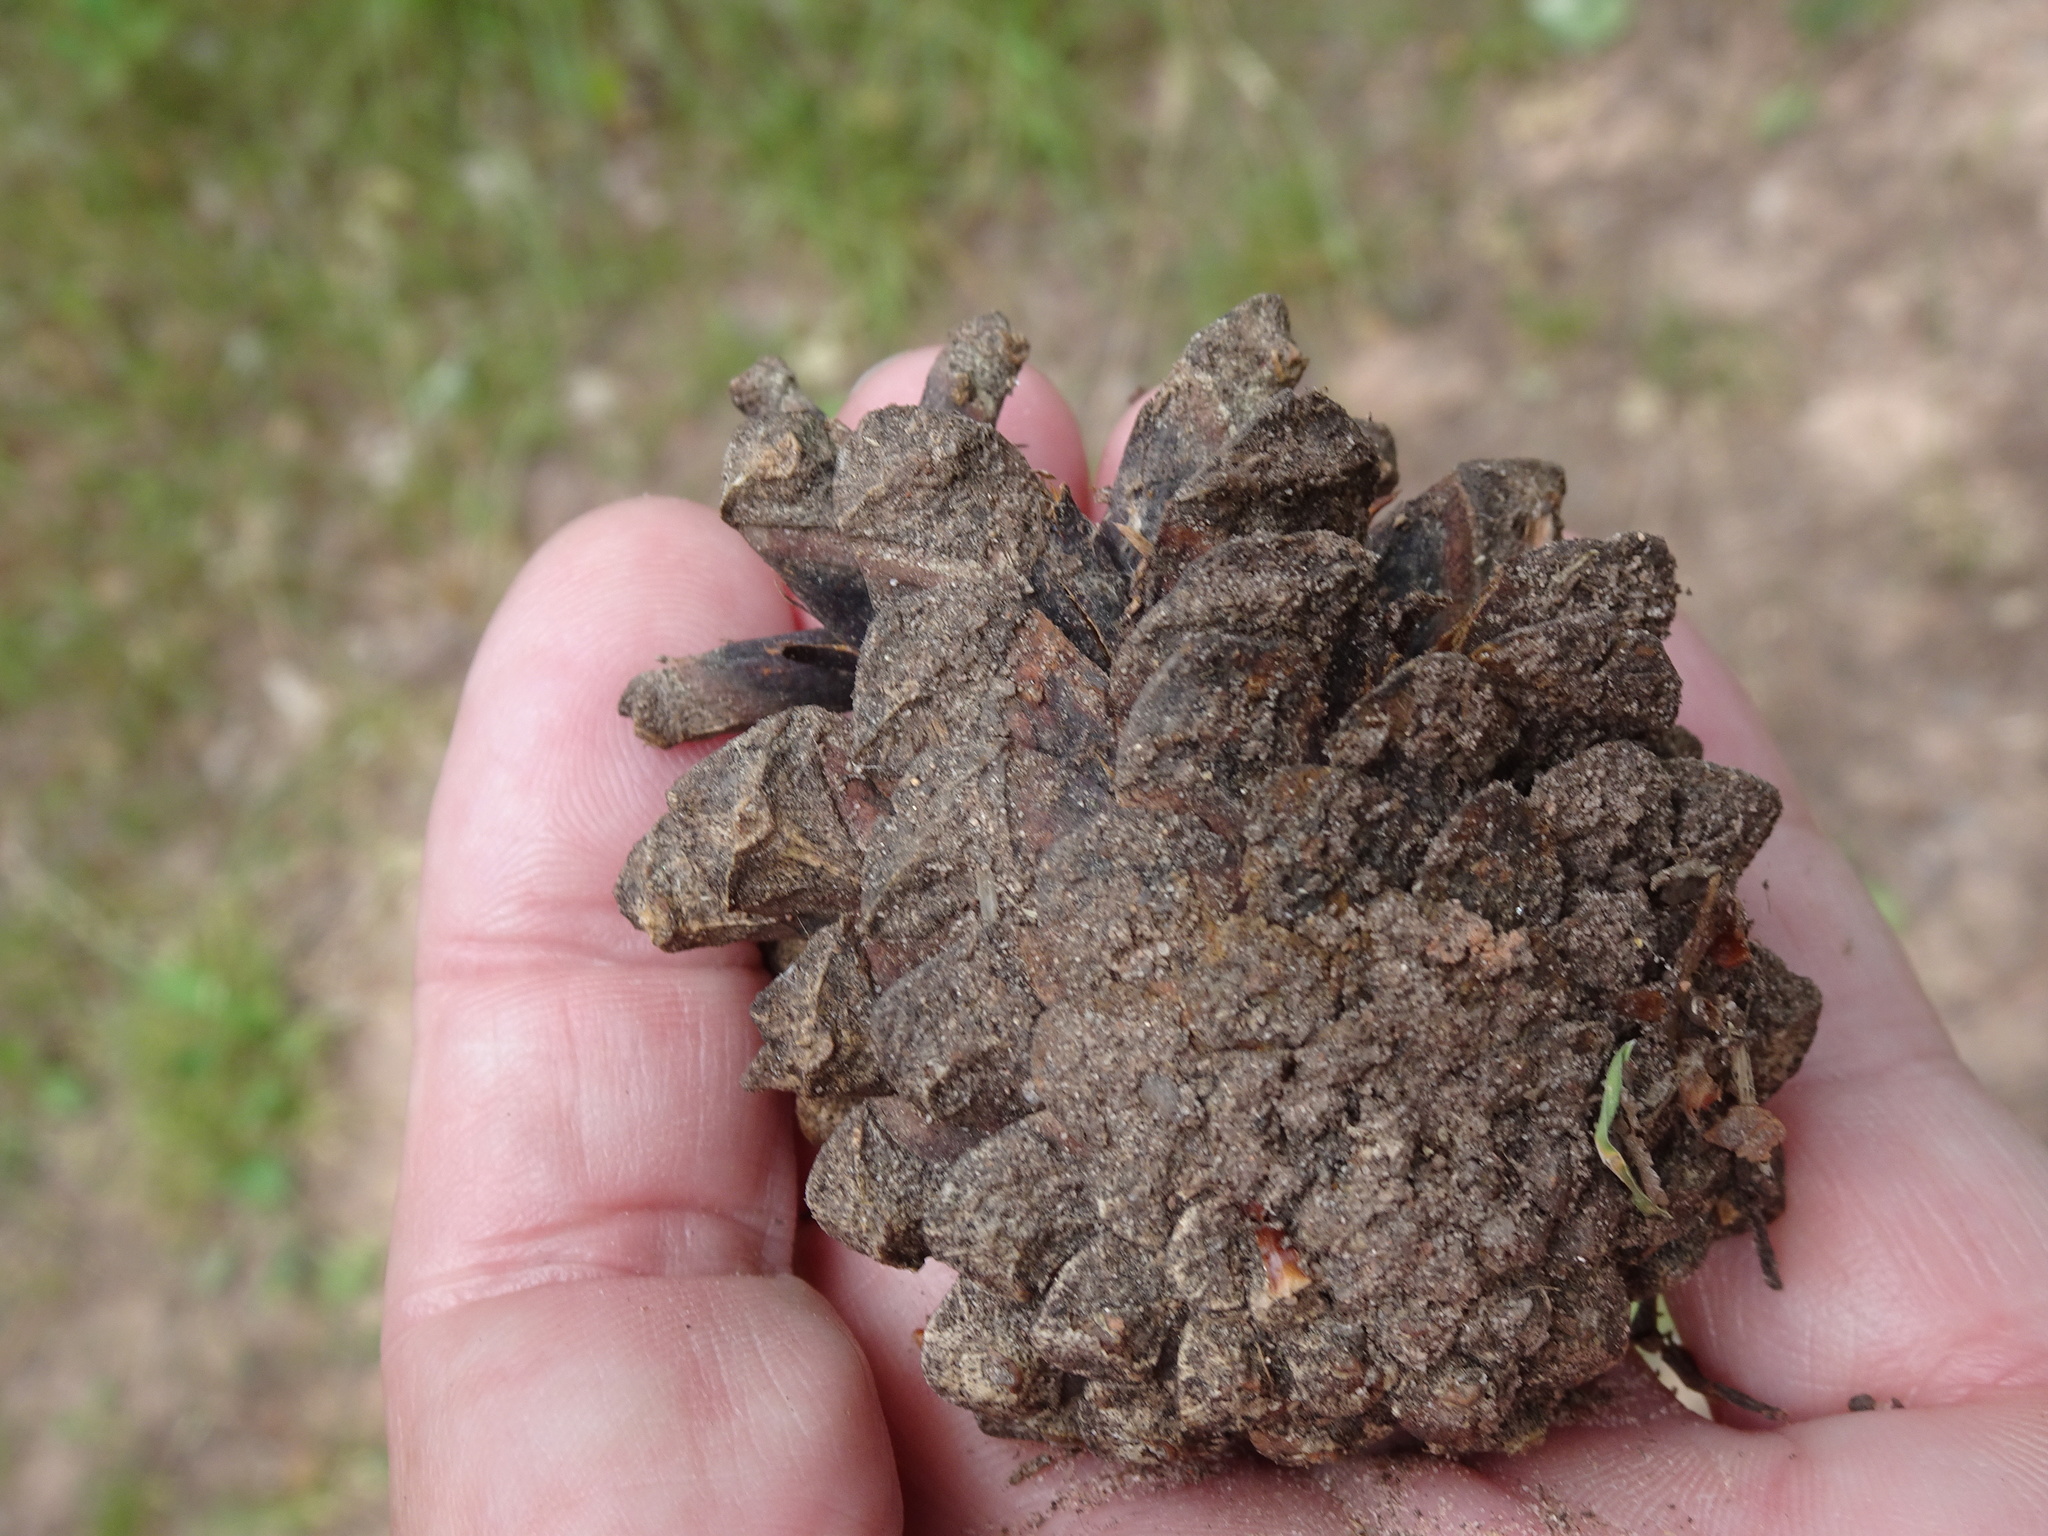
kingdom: Plantae
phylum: Tracheophyta
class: Pinopsida
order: Pinales
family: Pinaceae
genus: Pinus
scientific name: Pinus sylvestris
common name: Scots pine
